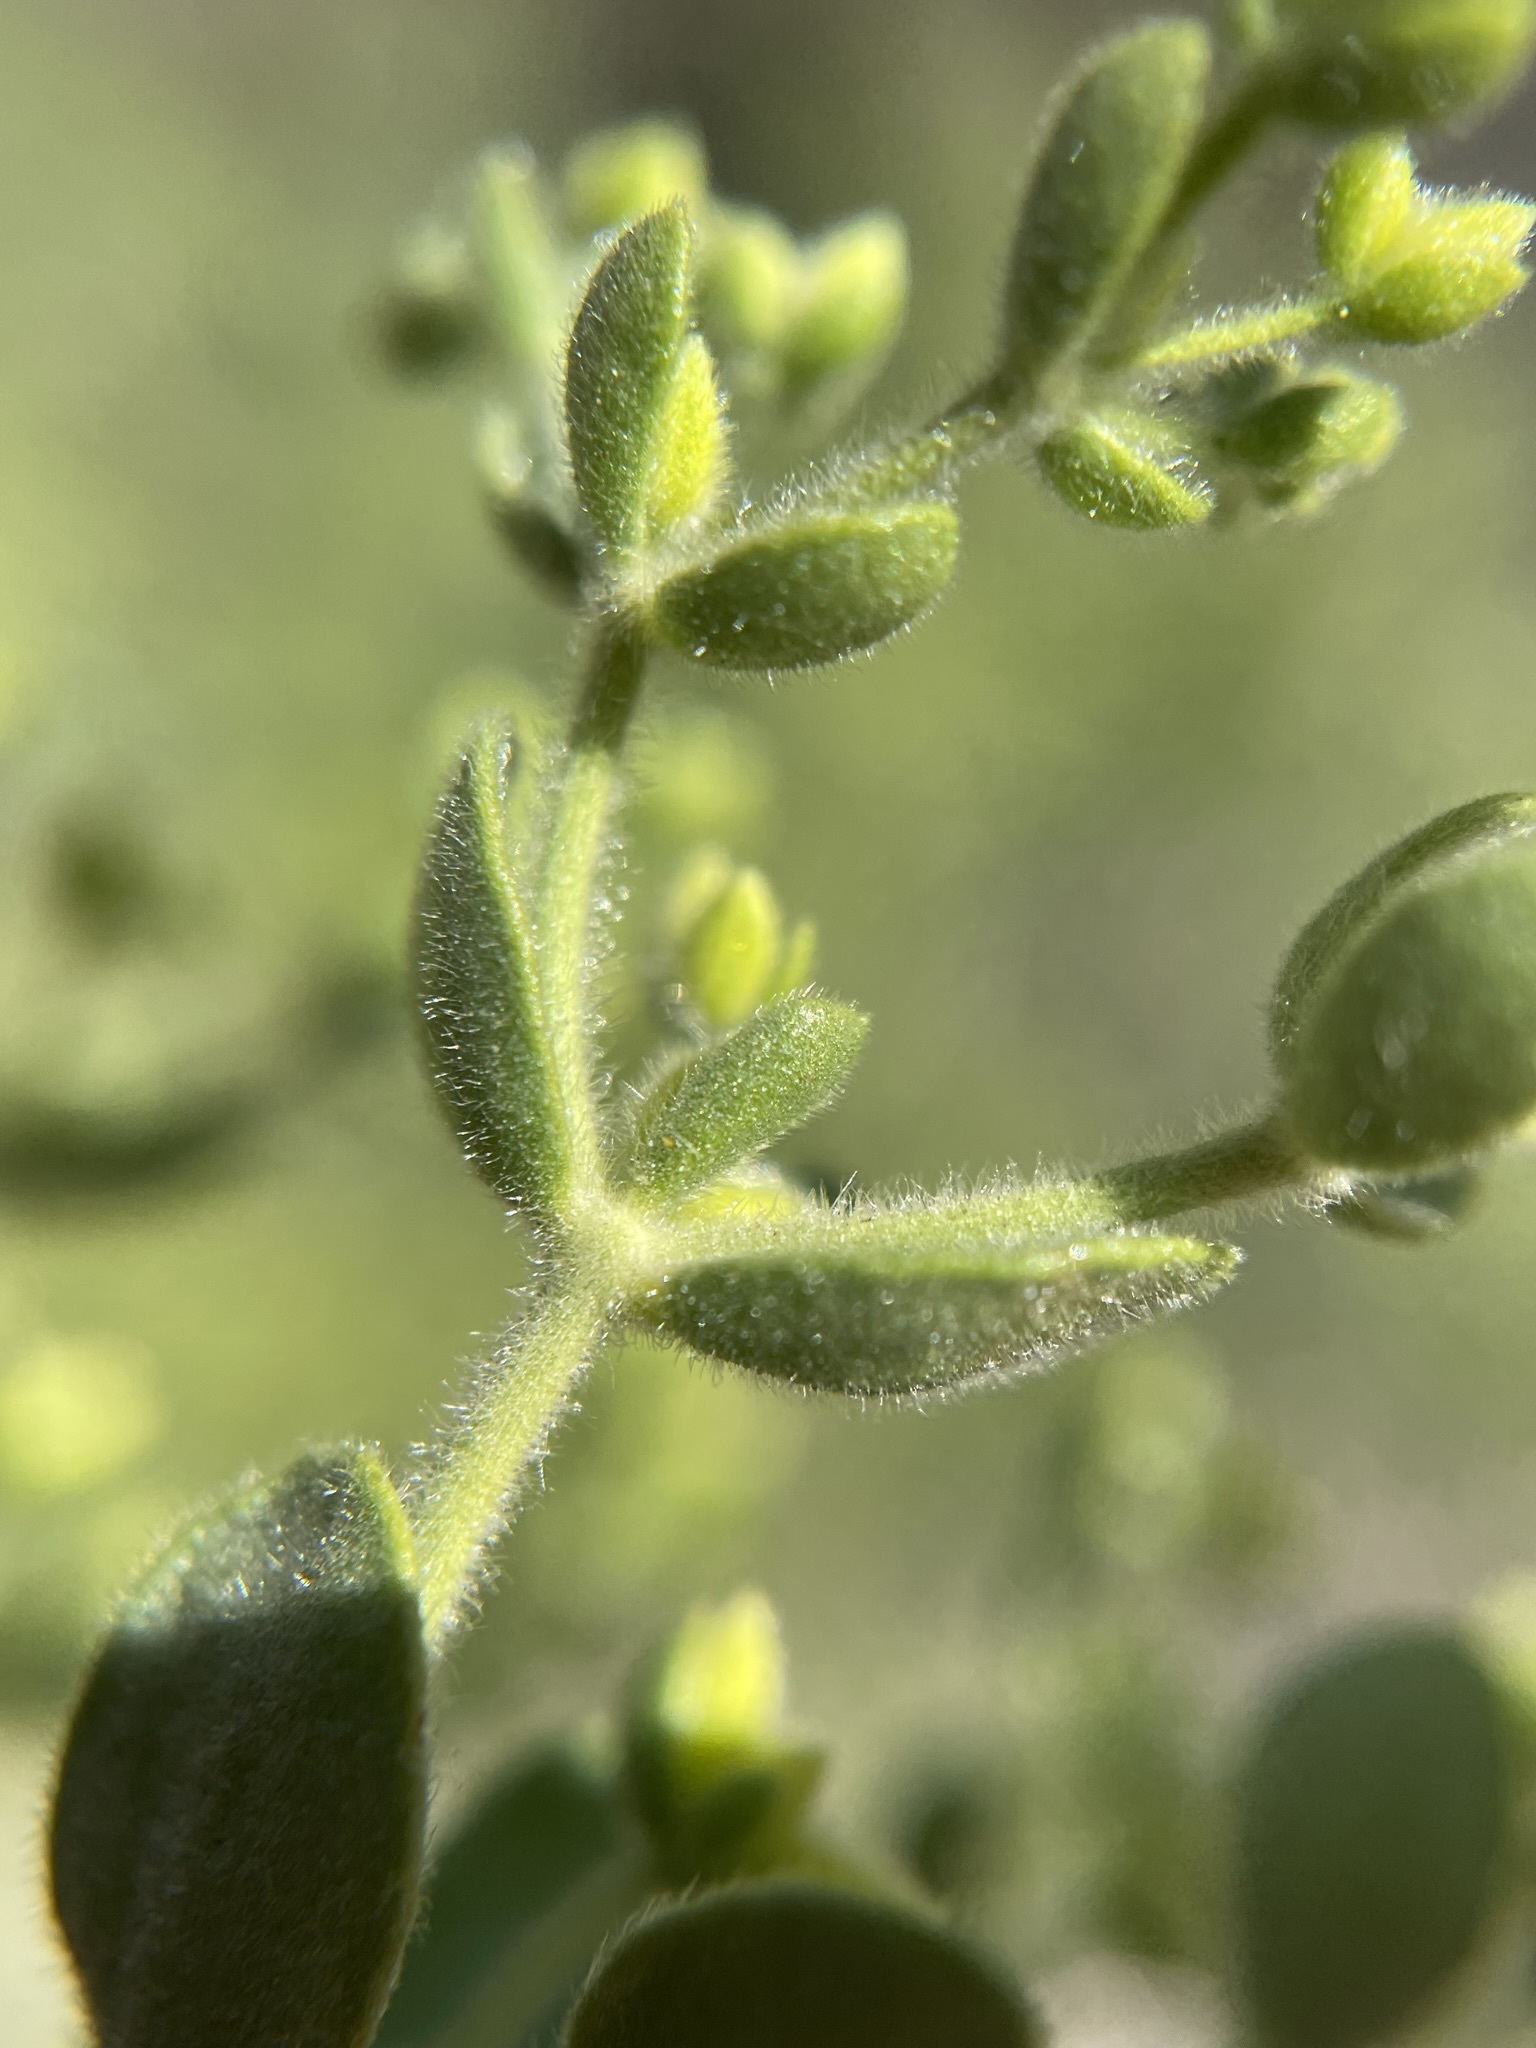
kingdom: Plantae
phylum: Tracheophyta
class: Magnoliopsida
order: Caryophyllales
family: Polygonaceae
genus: Dedeckera
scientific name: Dedeckera eurekensis
